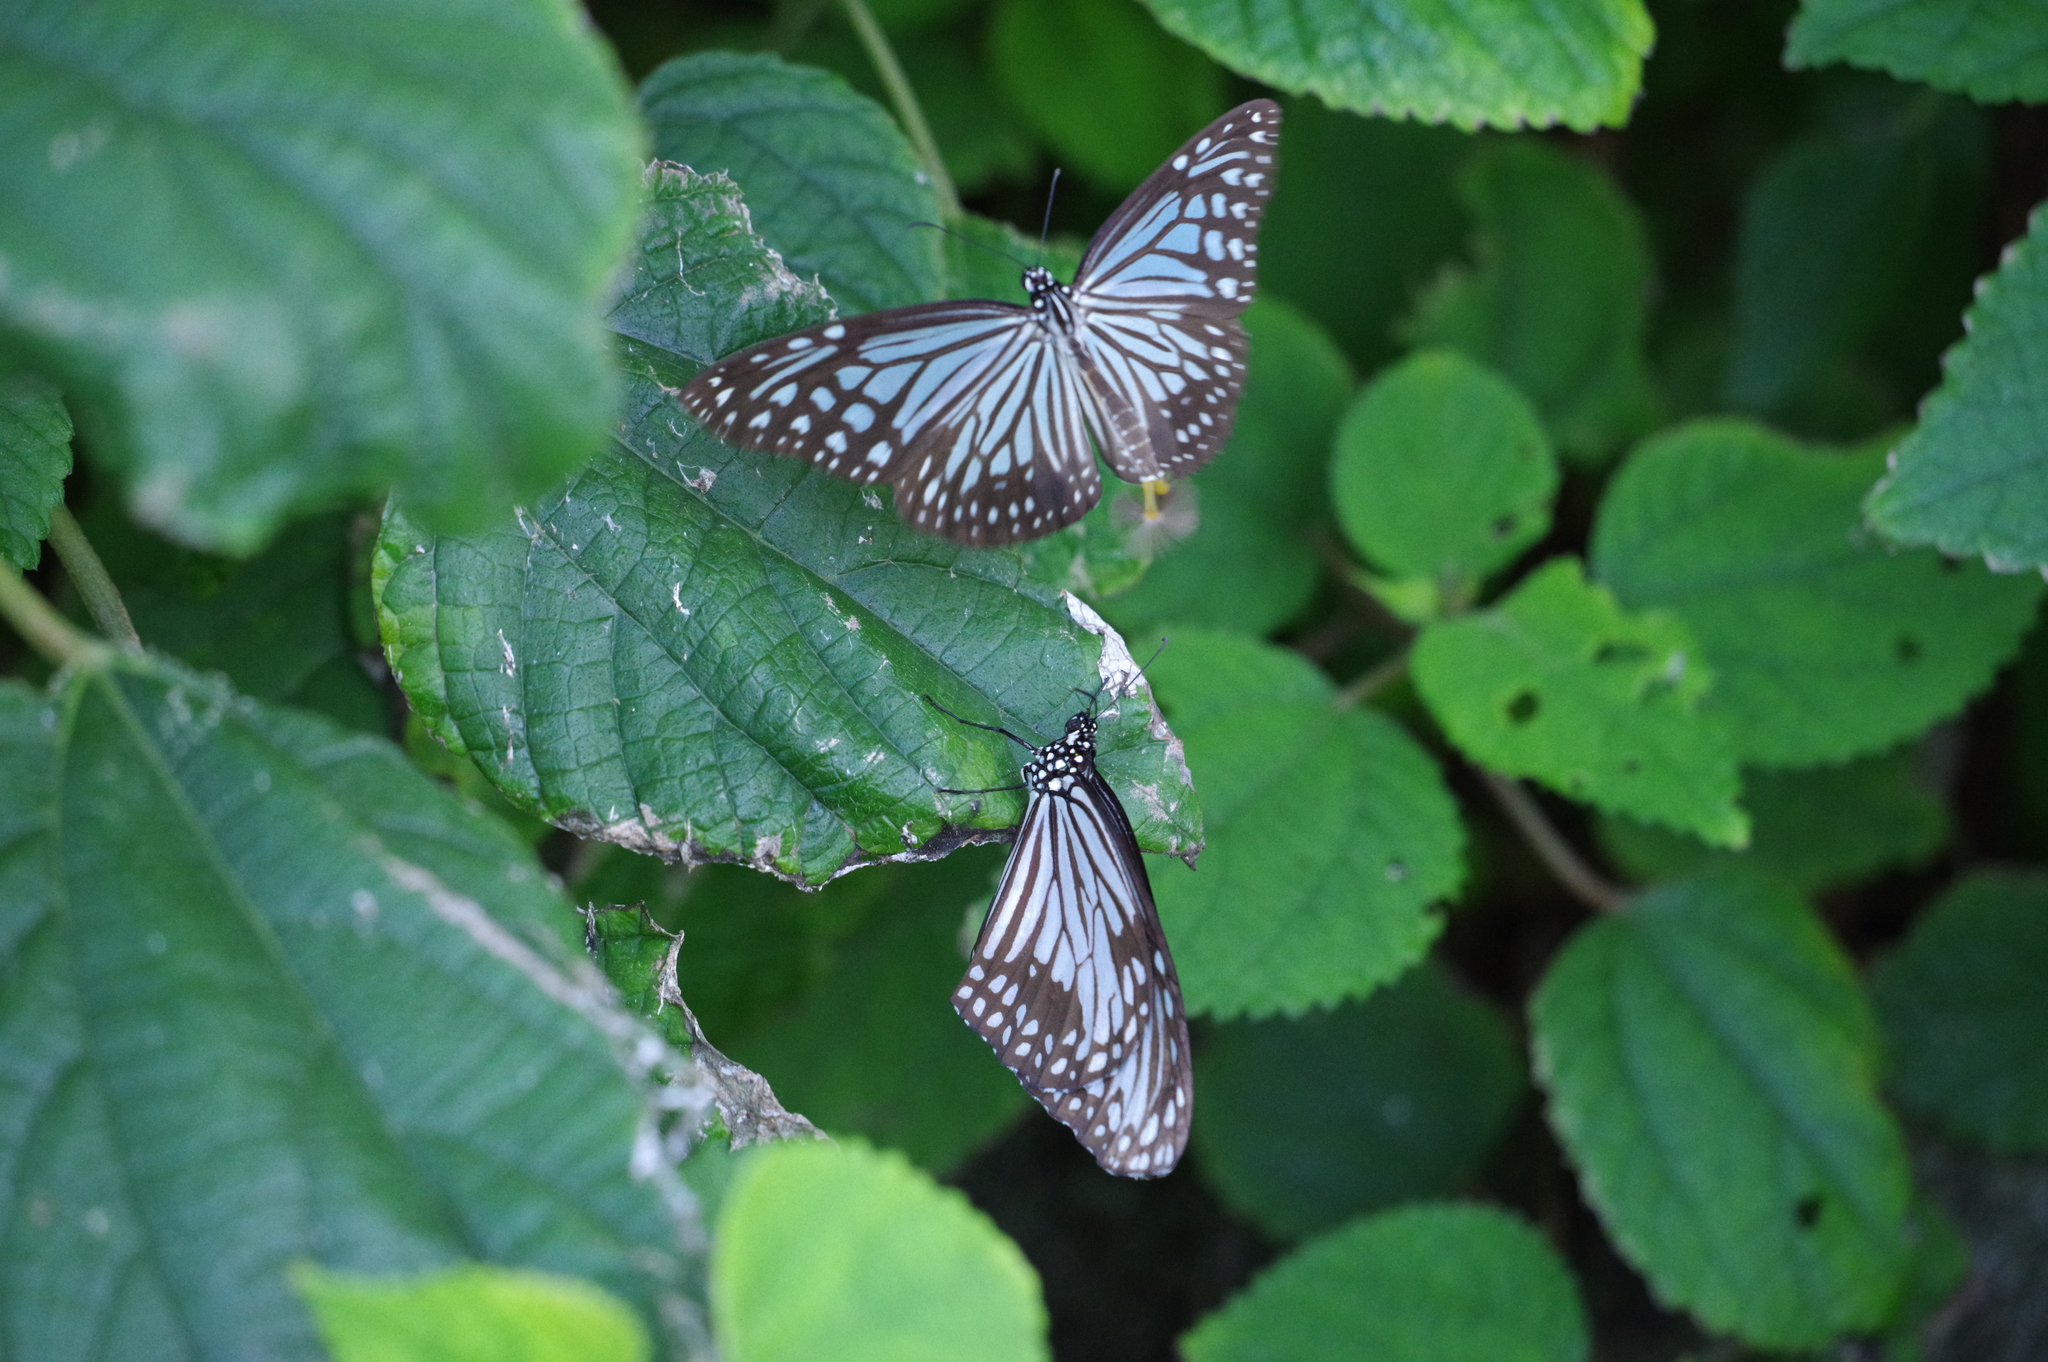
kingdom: Animalia
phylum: Arthropoda
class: Insecta
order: Lepidoptera
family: Nymphalidae
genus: Parantica
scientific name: Parantica aglea
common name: Glassy tiger
